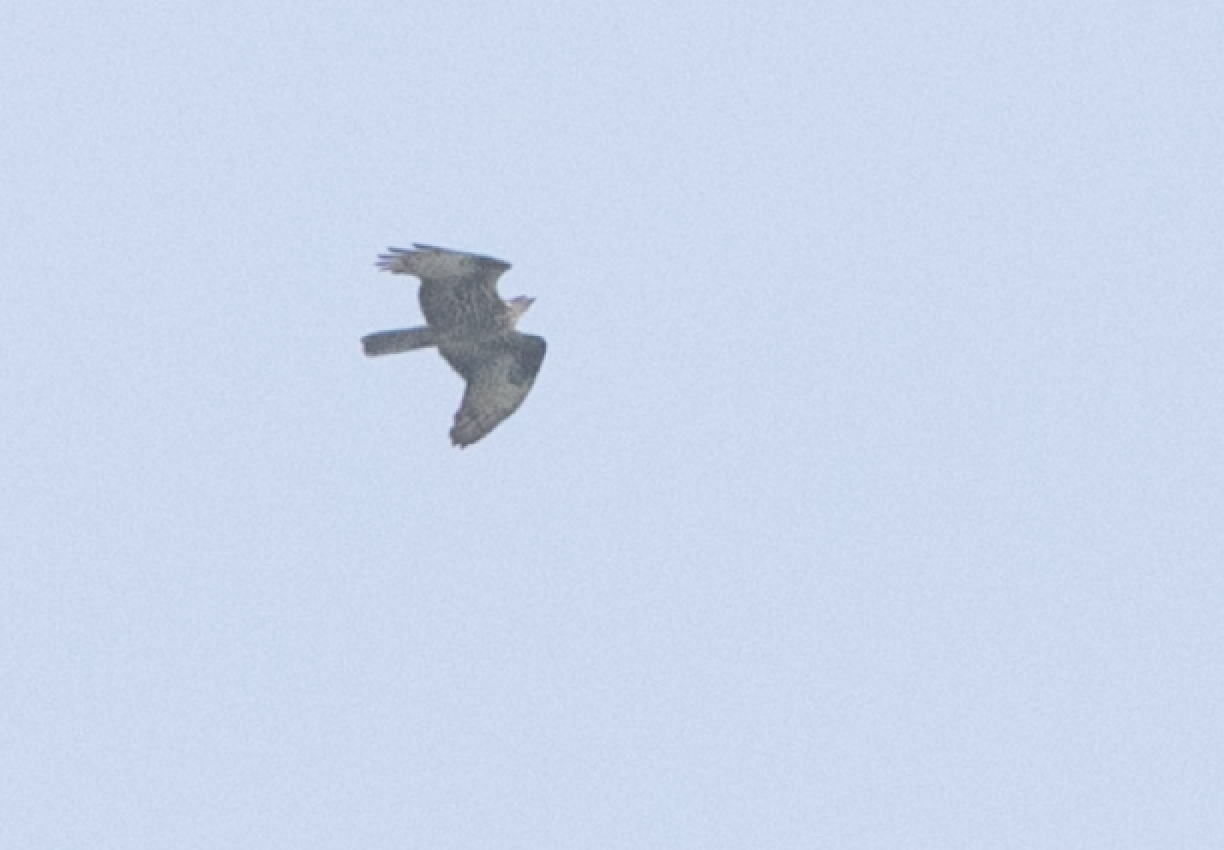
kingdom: Animalia
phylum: Chordata
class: Aves
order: Accipitriformes
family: Accipitridae
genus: Pernis
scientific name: Pernis apivorus
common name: European honey buzzard
